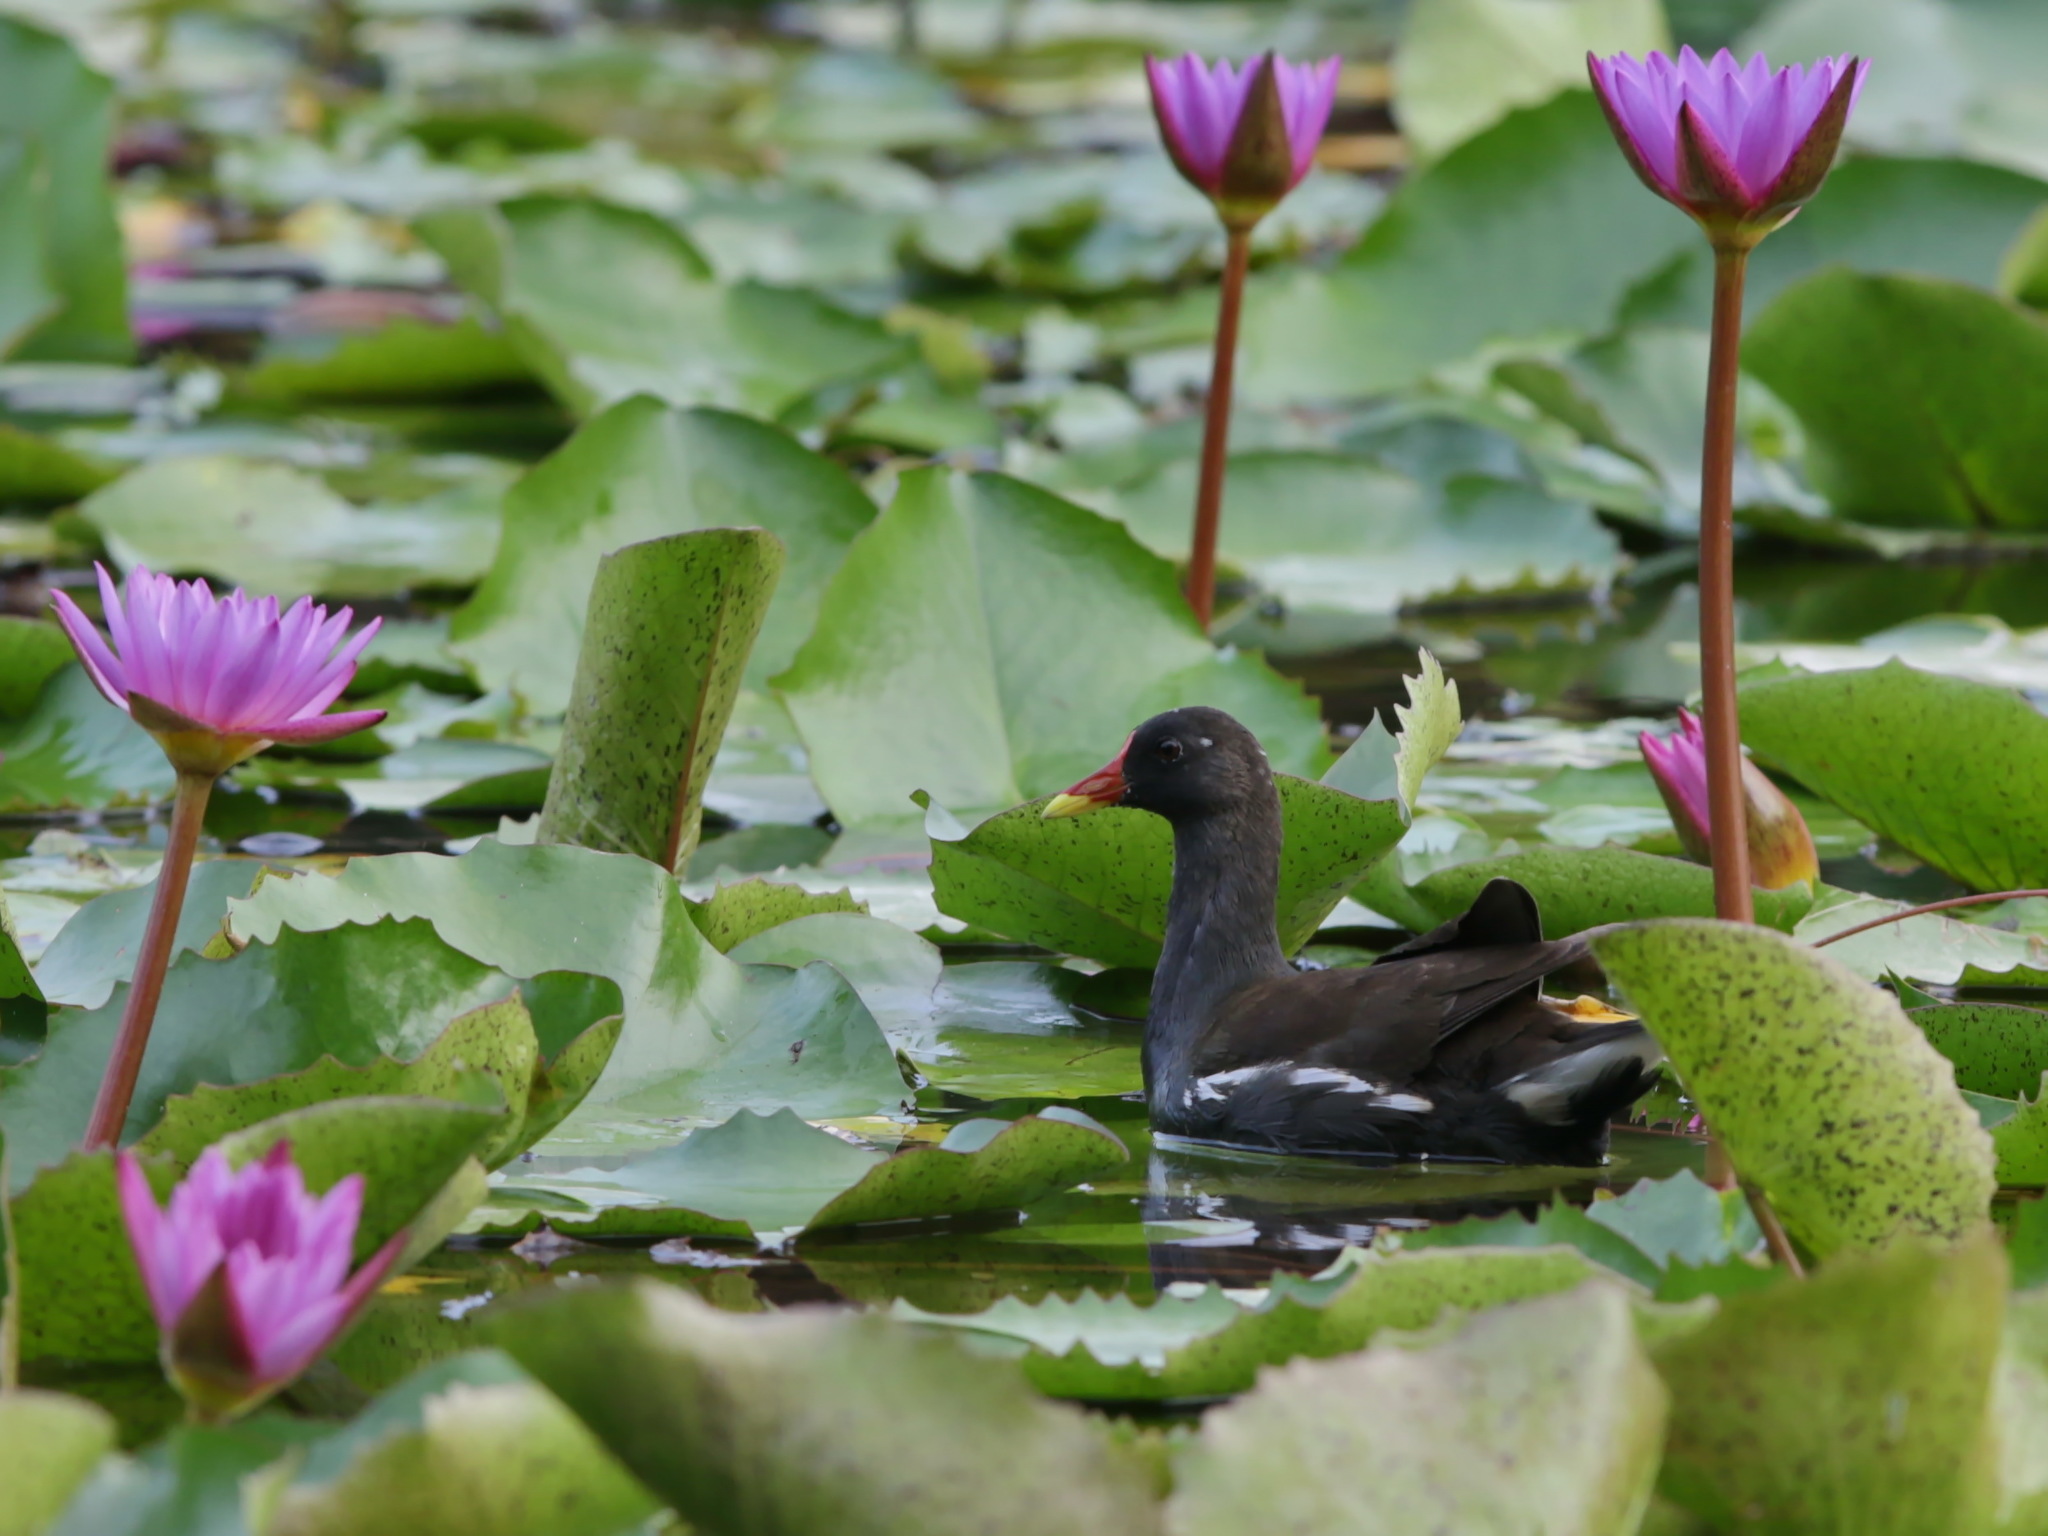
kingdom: Animalia
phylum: Chordata
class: Aves
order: Gruiformes
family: Rallidae
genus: Gallinula
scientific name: Gallinula chloropus
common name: Common moorhen
